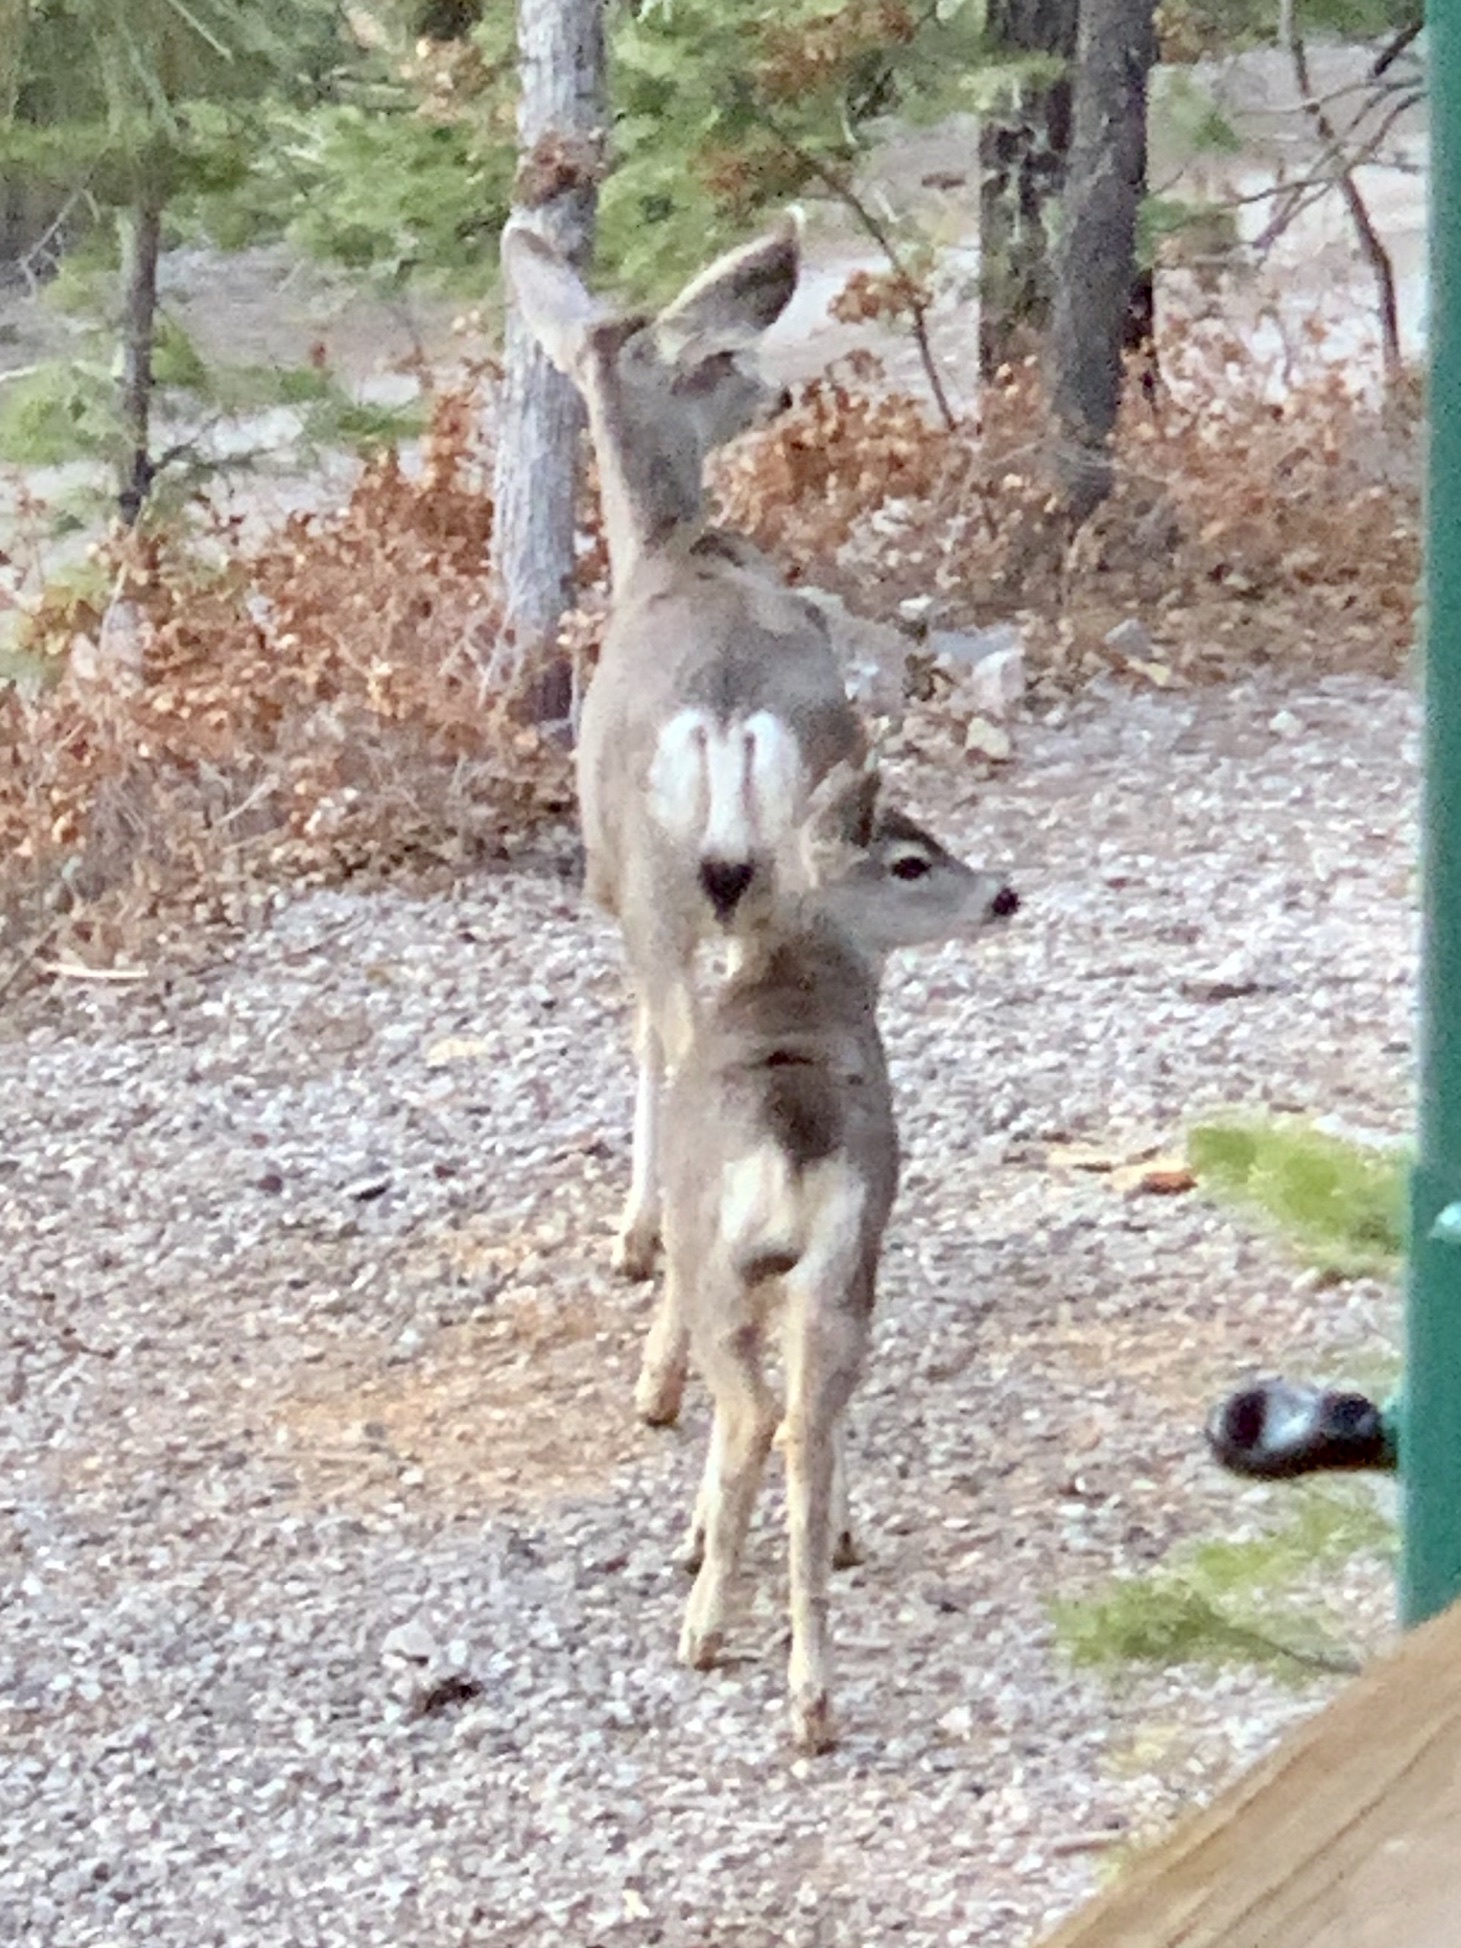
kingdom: Animalia
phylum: Chordata
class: Mammalia
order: Artiodactyla
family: Cervidae
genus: Odocoileus
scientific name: Odocoileus hemionus
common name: Mule deer
